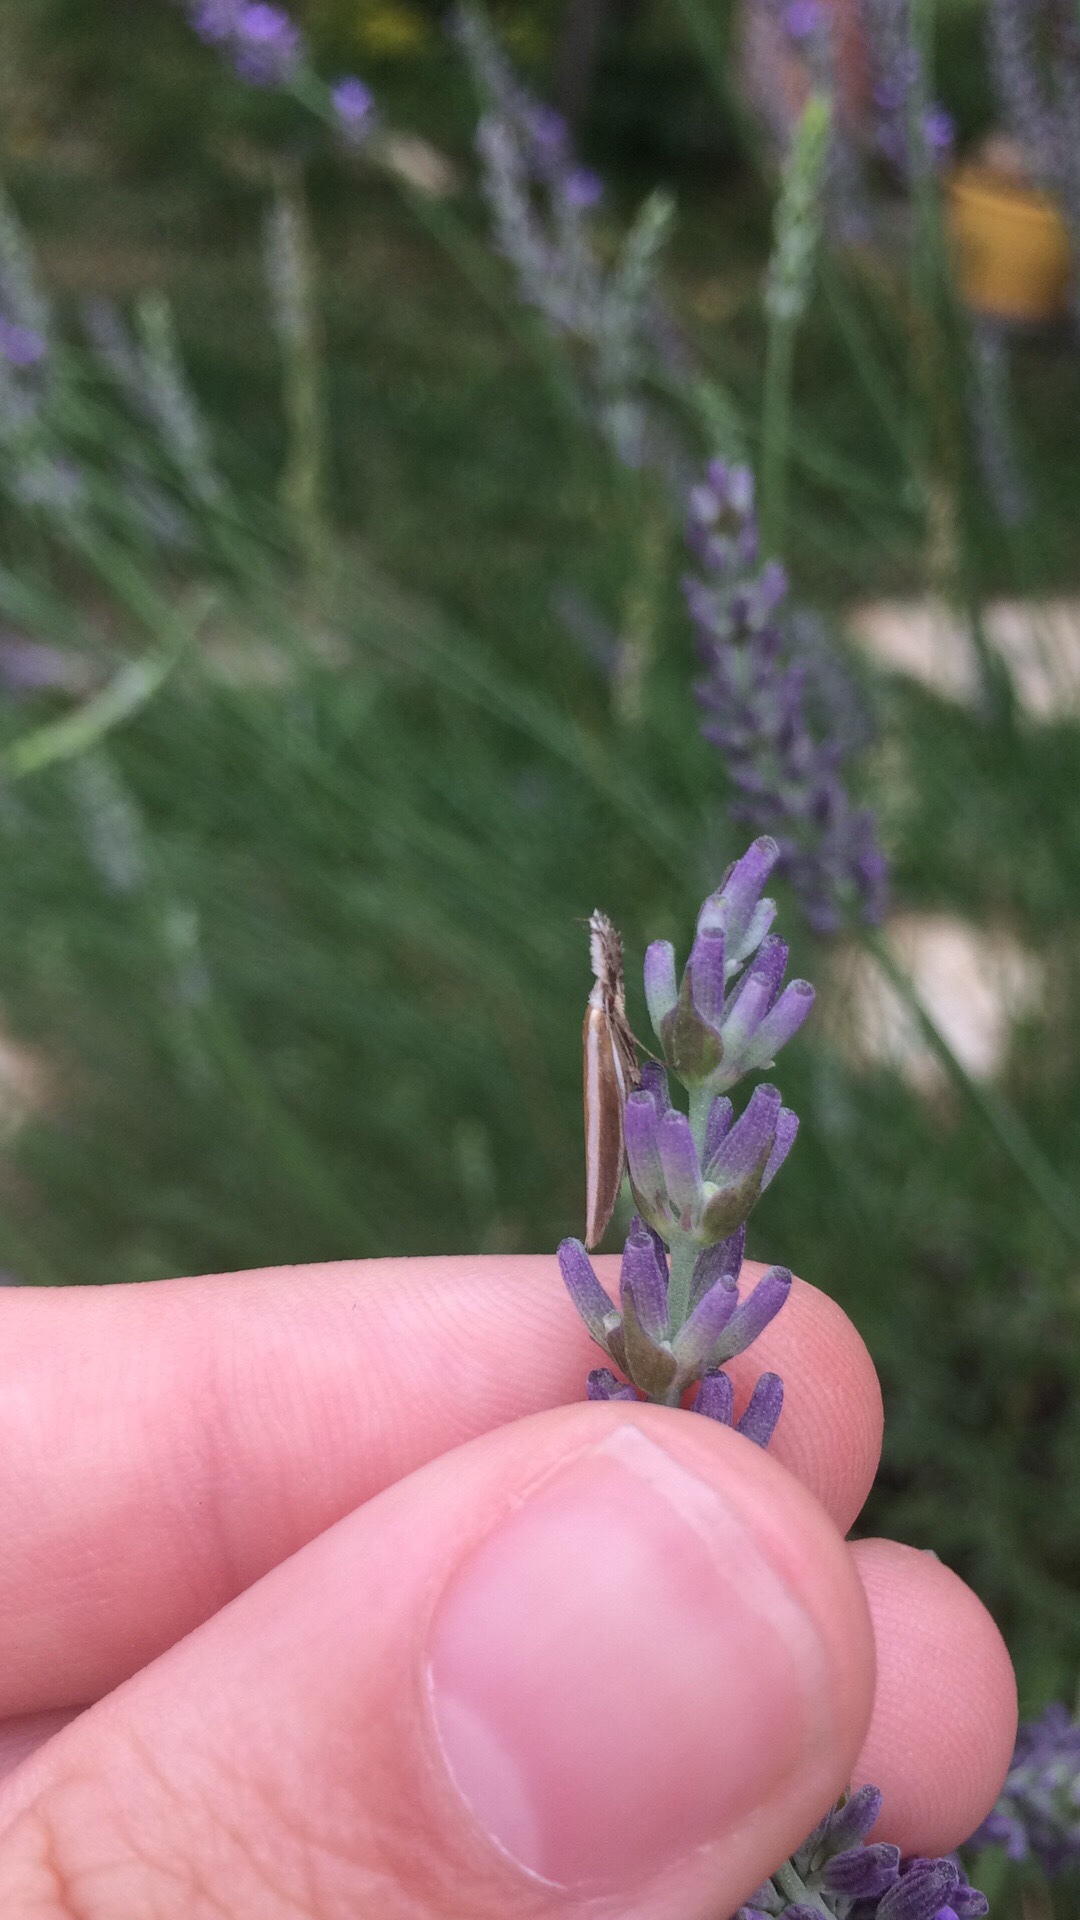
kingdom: Animalia
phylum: Arthropoda
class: Insecta
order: Lepidoptera
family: Oecophoridae
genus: Pleurota
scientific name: Pleurota aristella
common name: Southern streak
